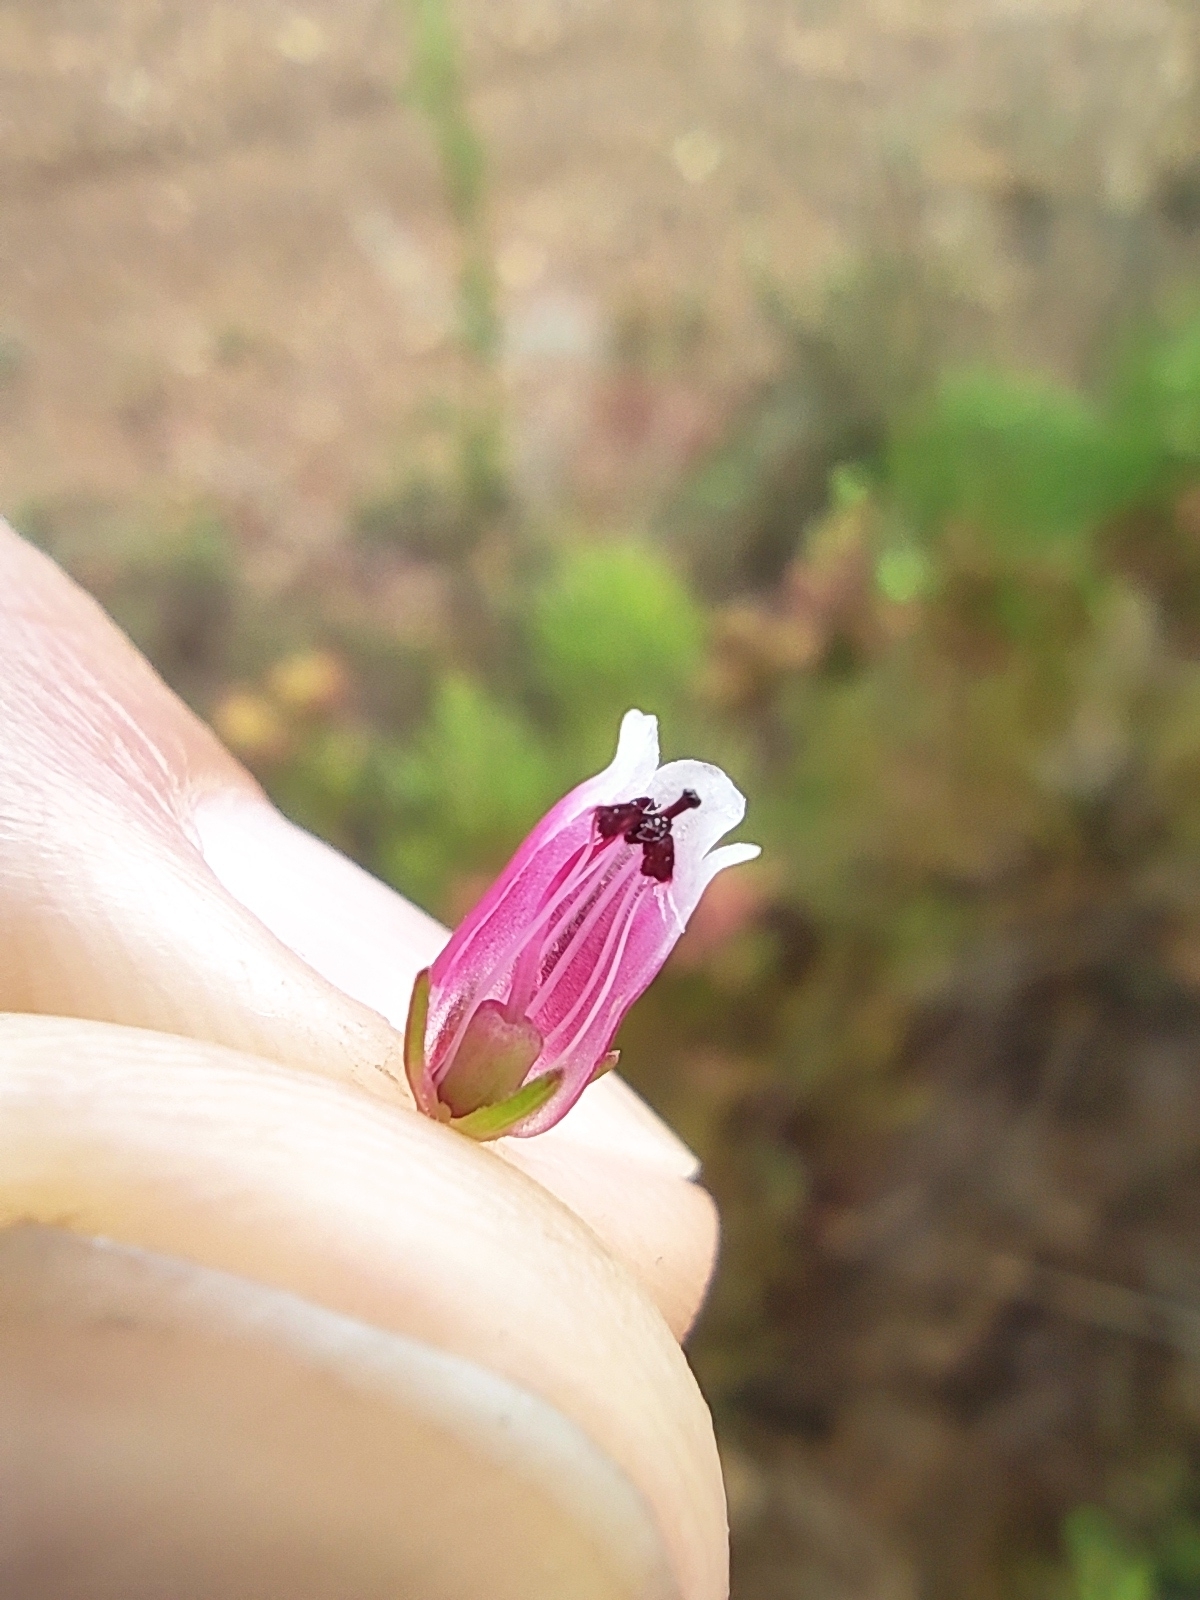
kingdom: Plantae
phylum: Tracheophyta
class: Magnoliopsida
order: Ericales
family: Ericaceae
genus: Erica
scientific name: Erica sitiens
